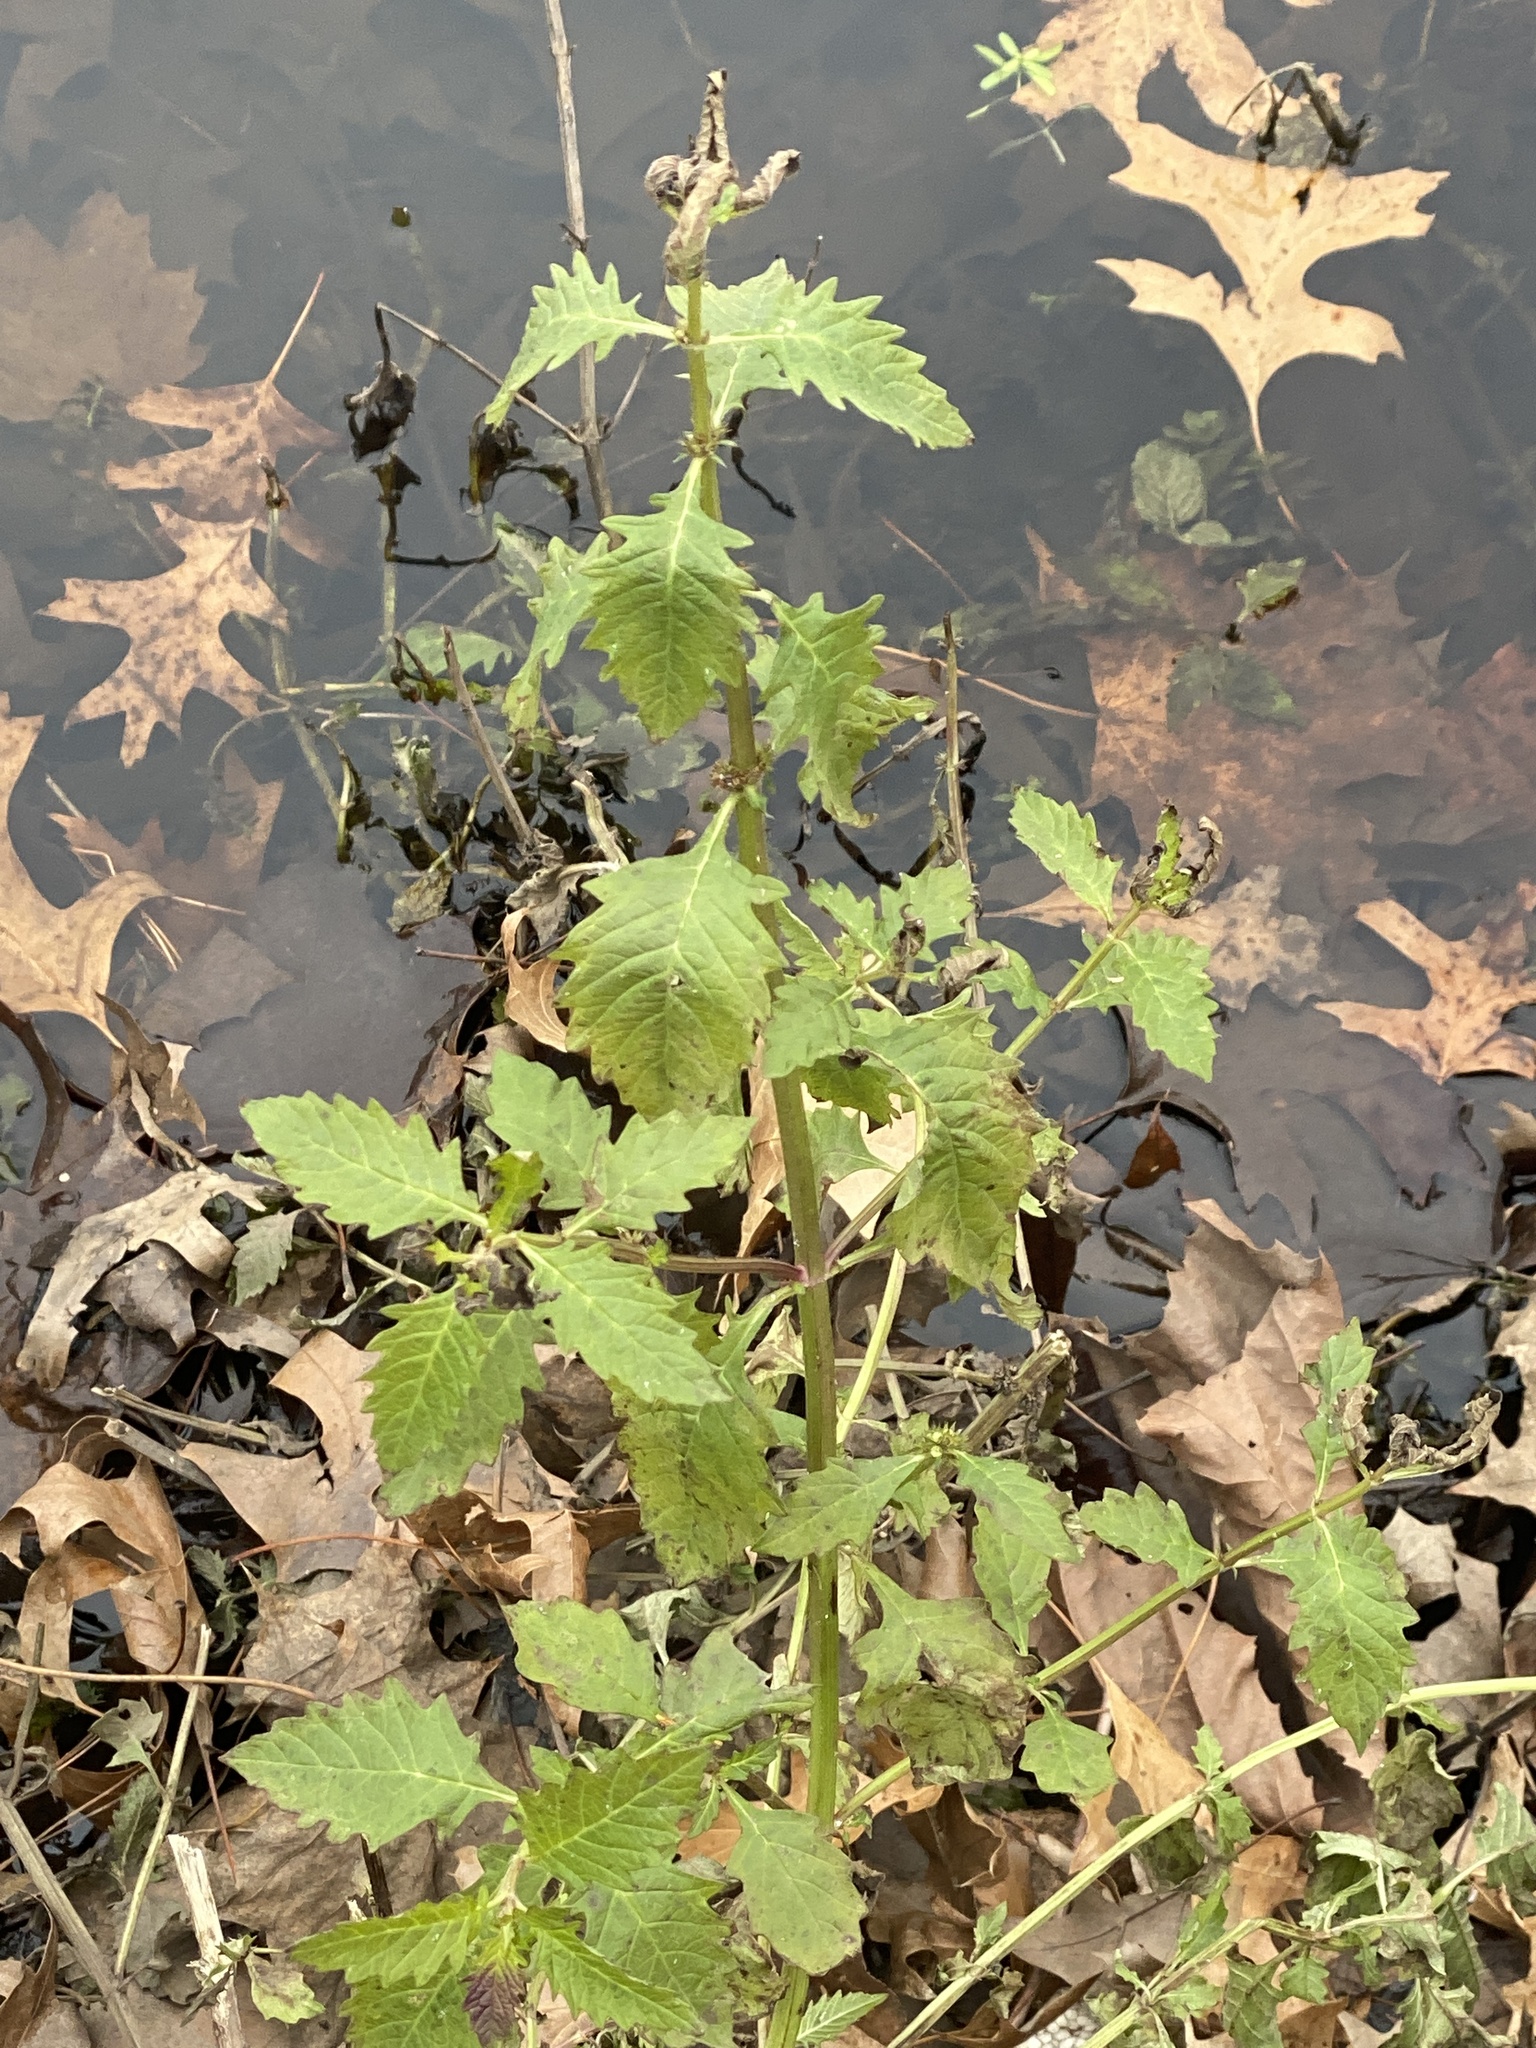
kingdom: Plantae
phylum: Tracheophyta
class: Magnoliopsida
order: Lamiales
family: Lamiaceae
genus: Lycopus
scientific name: Lycopus europaeus
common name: European bugleweed
